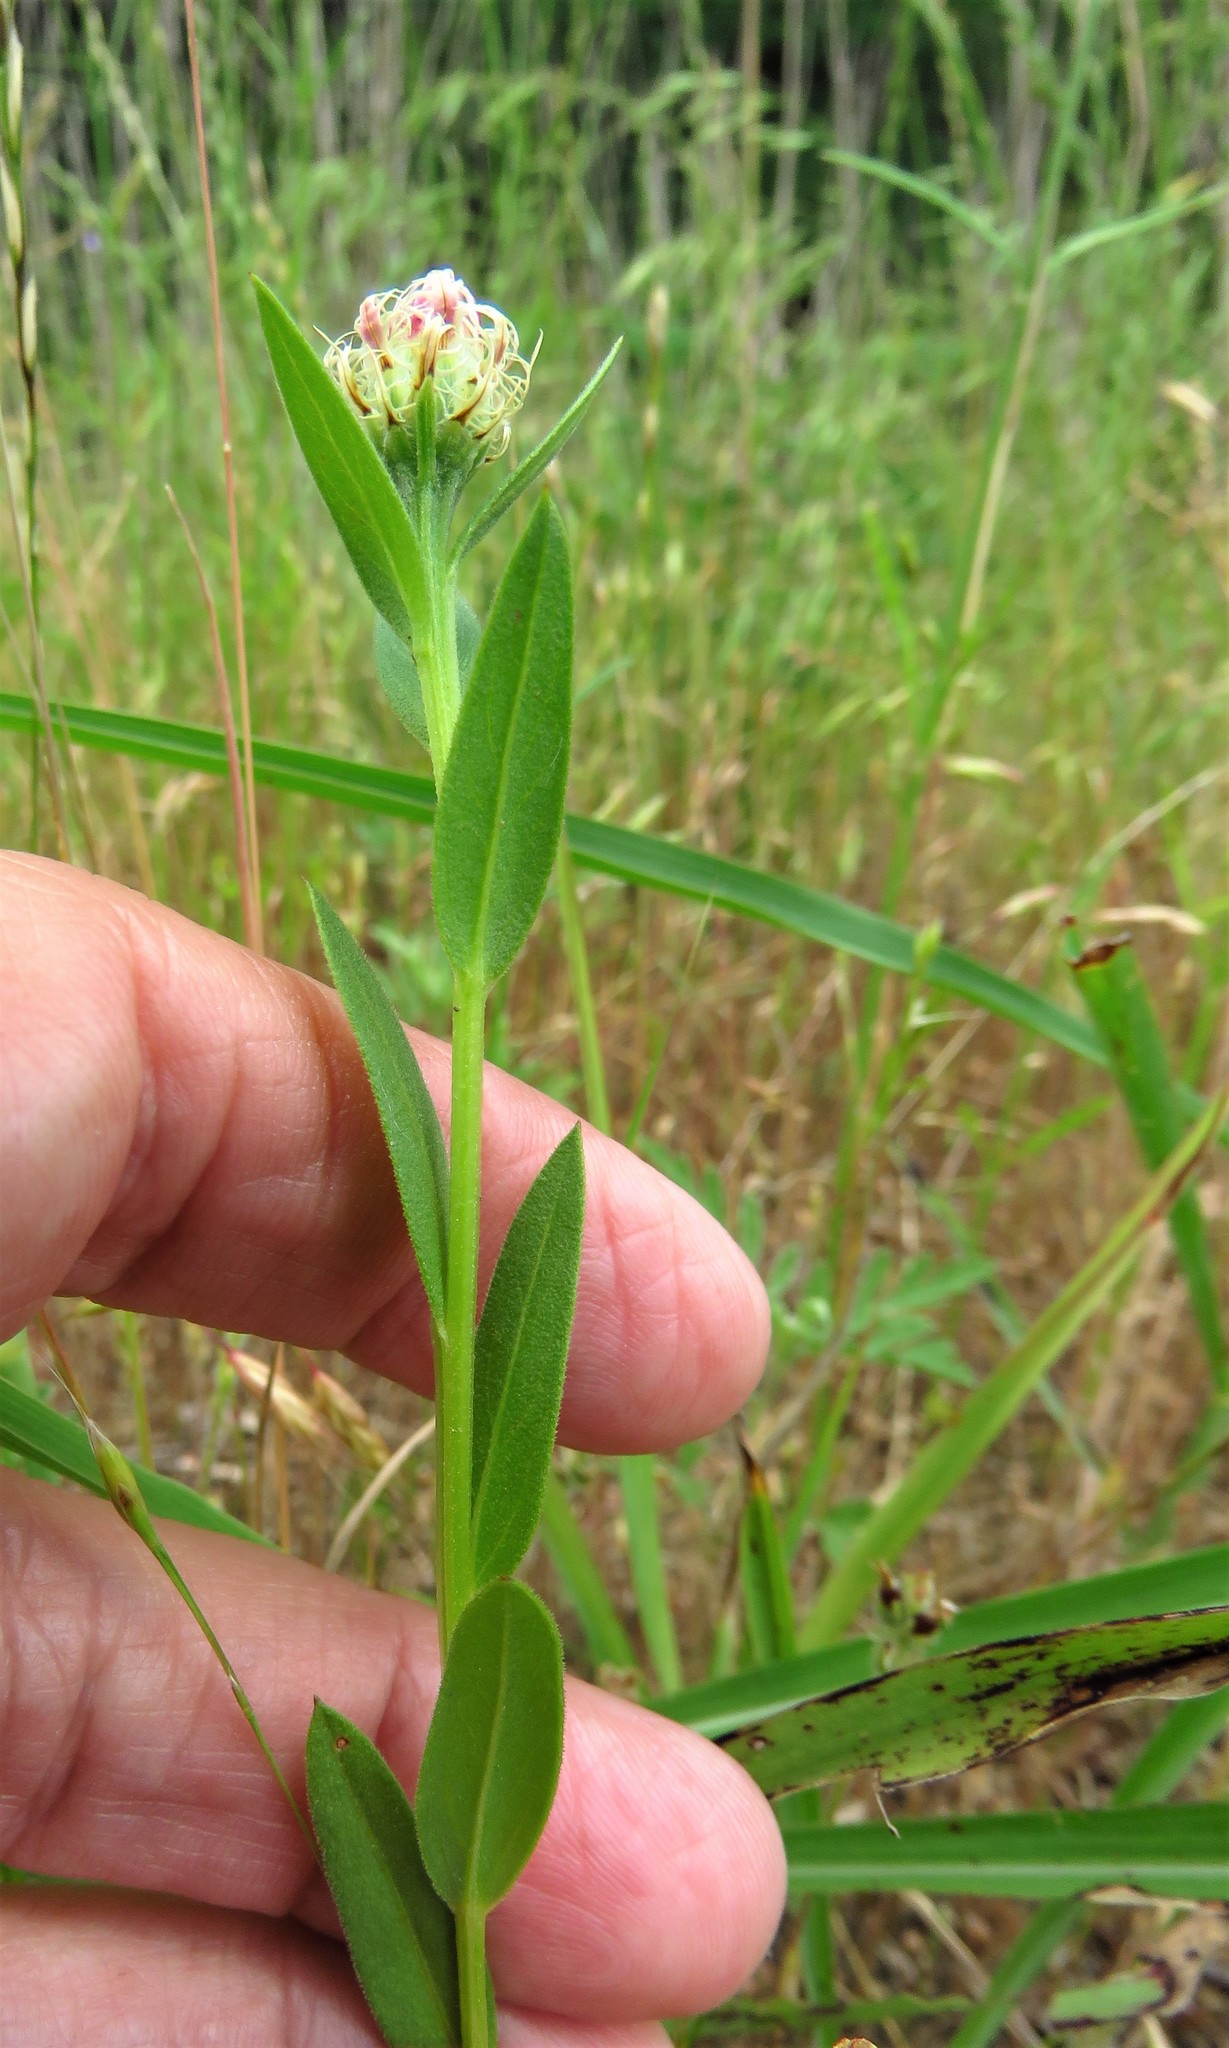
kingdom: Plantae
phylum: Tracheophyta
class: Magnoliopsida
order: Asterales
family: Asteraceae
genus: Plectocephalus
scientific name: Plectocephalus americanus
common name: American basket-flower
